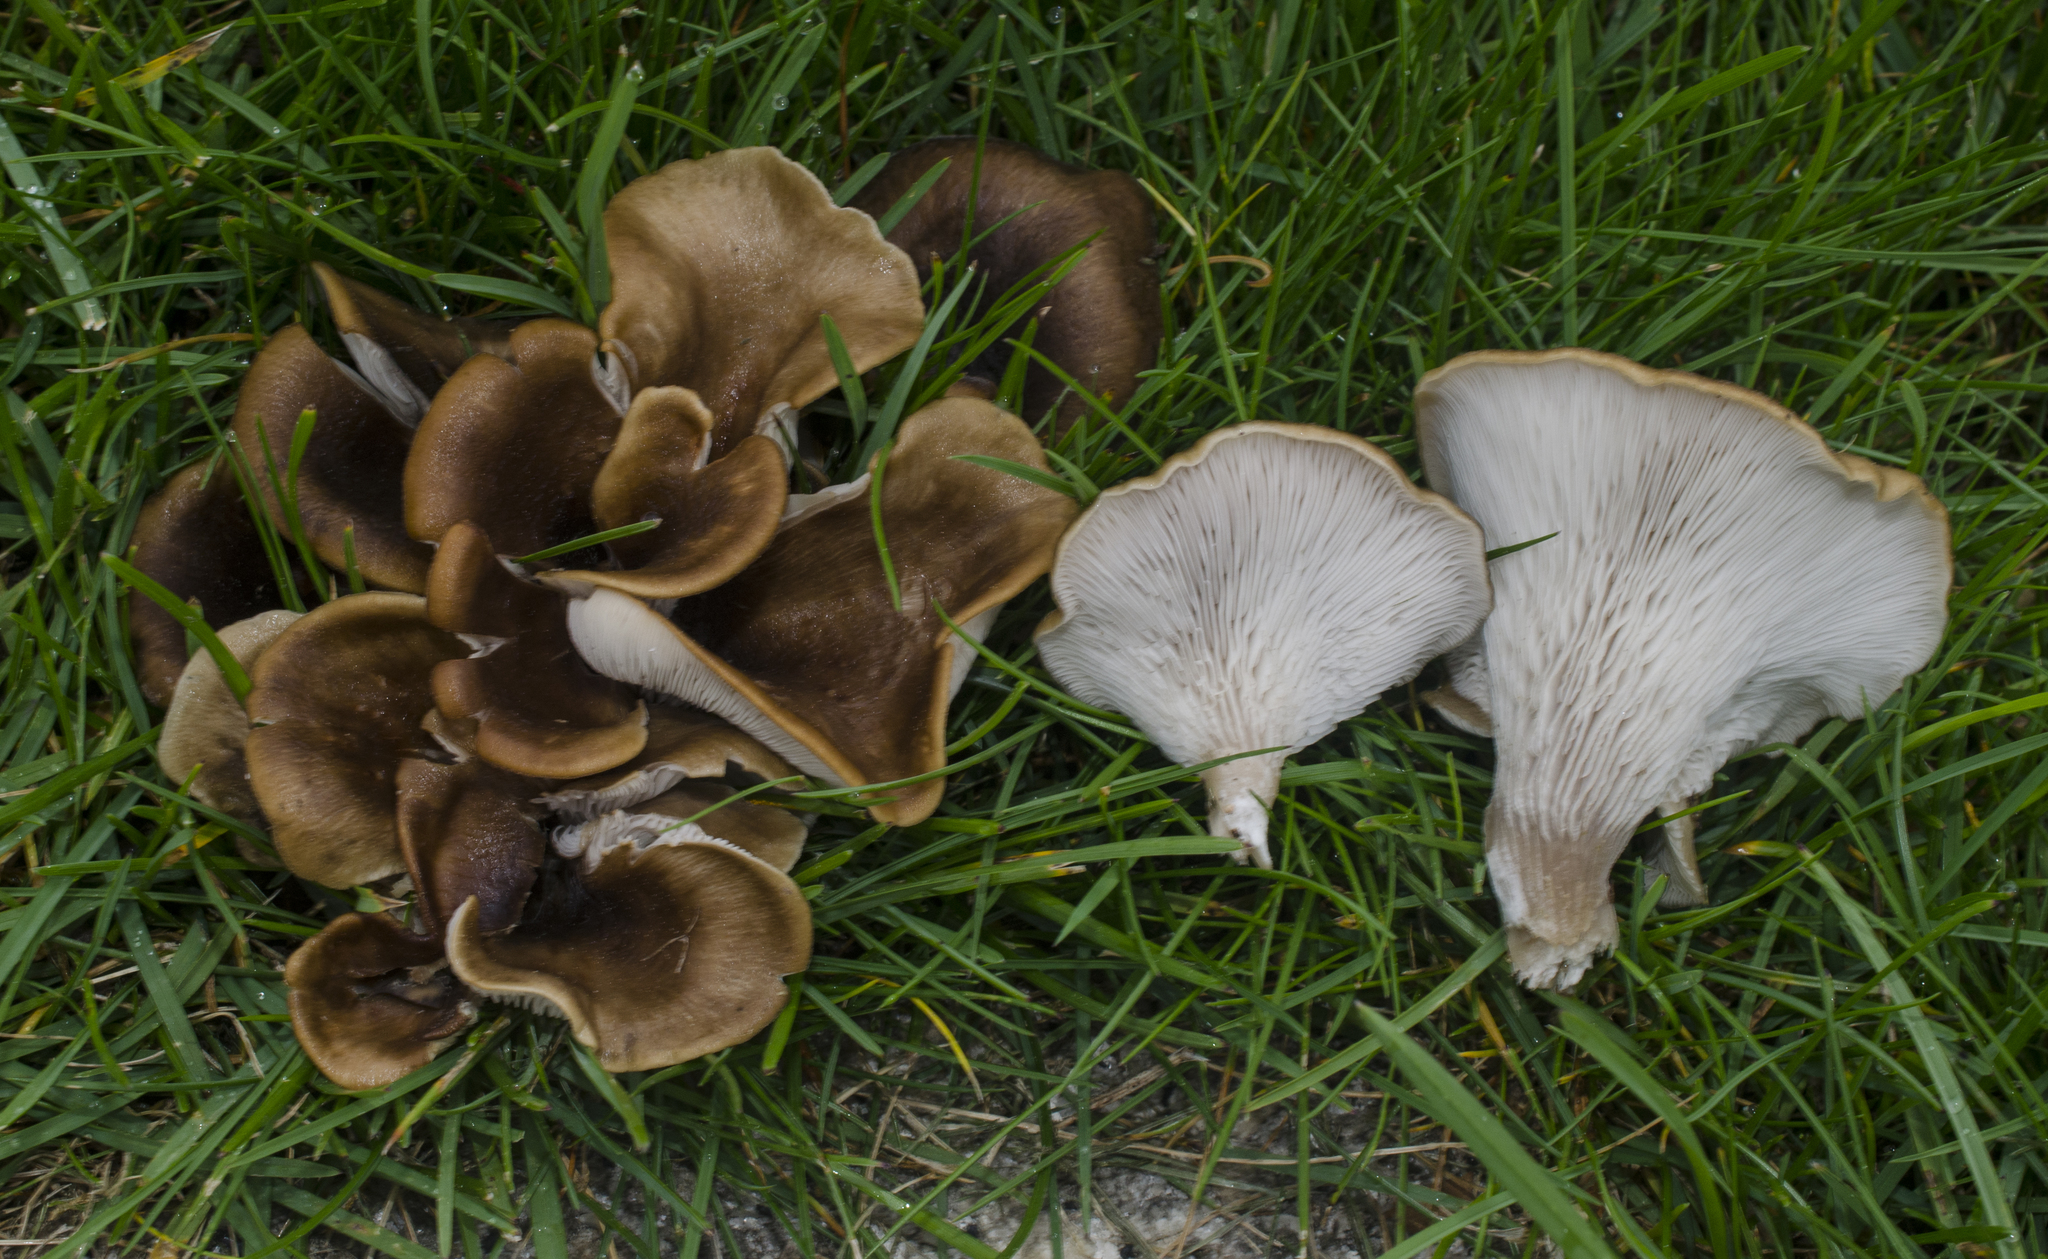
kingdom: Fungi
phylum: Basidiomycota
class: Agaricomycetes
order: Agaricales
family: Pleurotaceae
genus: Hohenbuehelia
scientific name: Hohenbuehelia petaloides
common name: Shoehorn oyster
